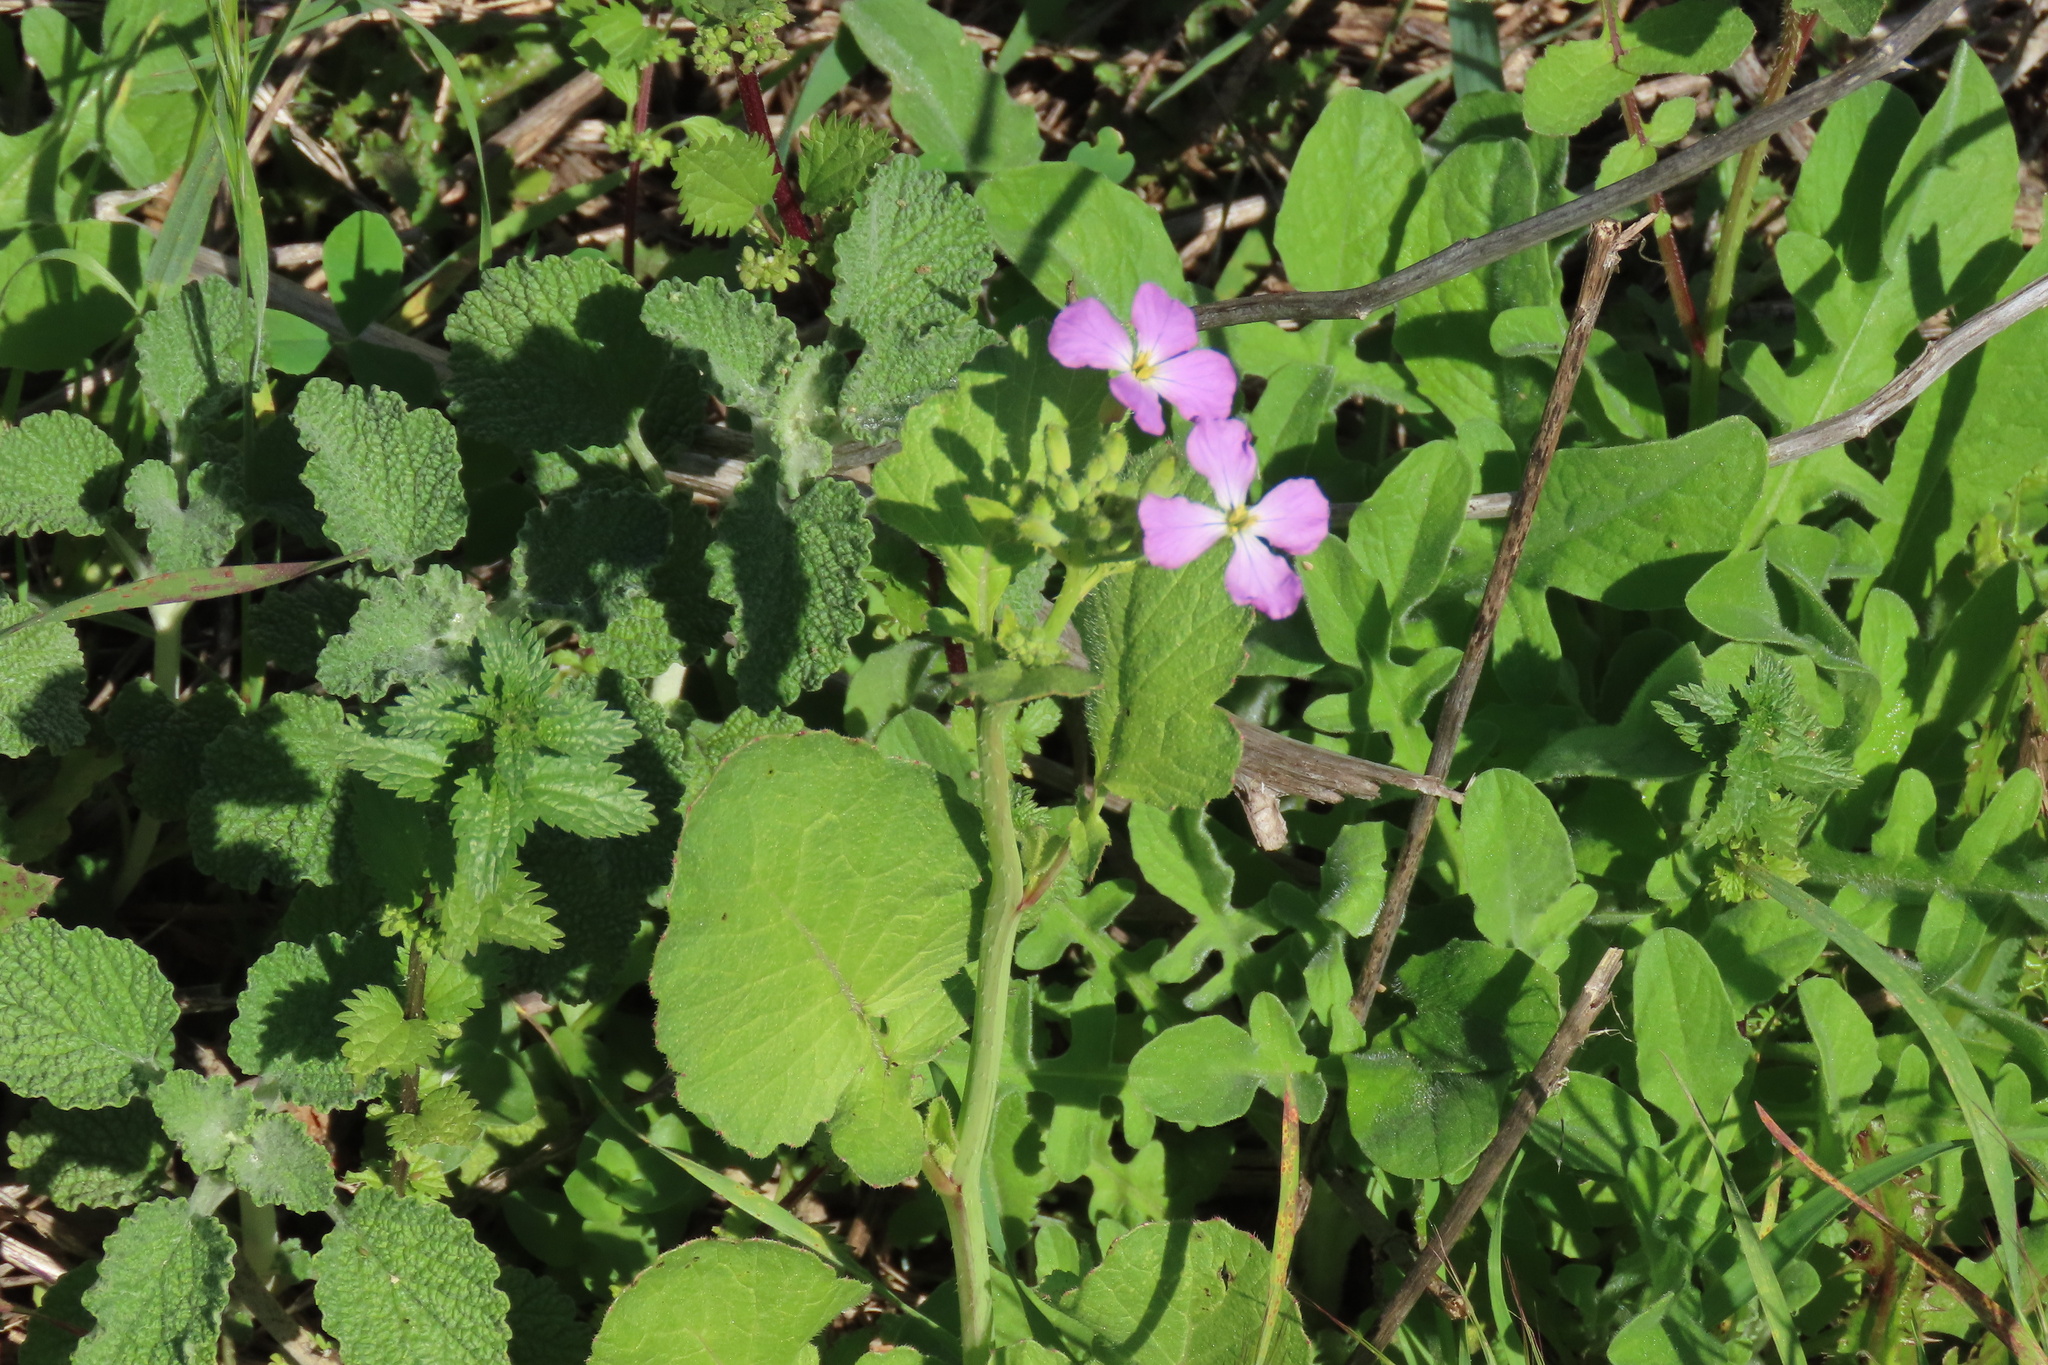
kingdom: Plantae
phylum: Tracheophyta
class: Magnoliopsida
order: Brassicales
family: Brassicaceae
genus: Raphanus
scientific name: Raphanus sativus
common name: Cultivated radish
